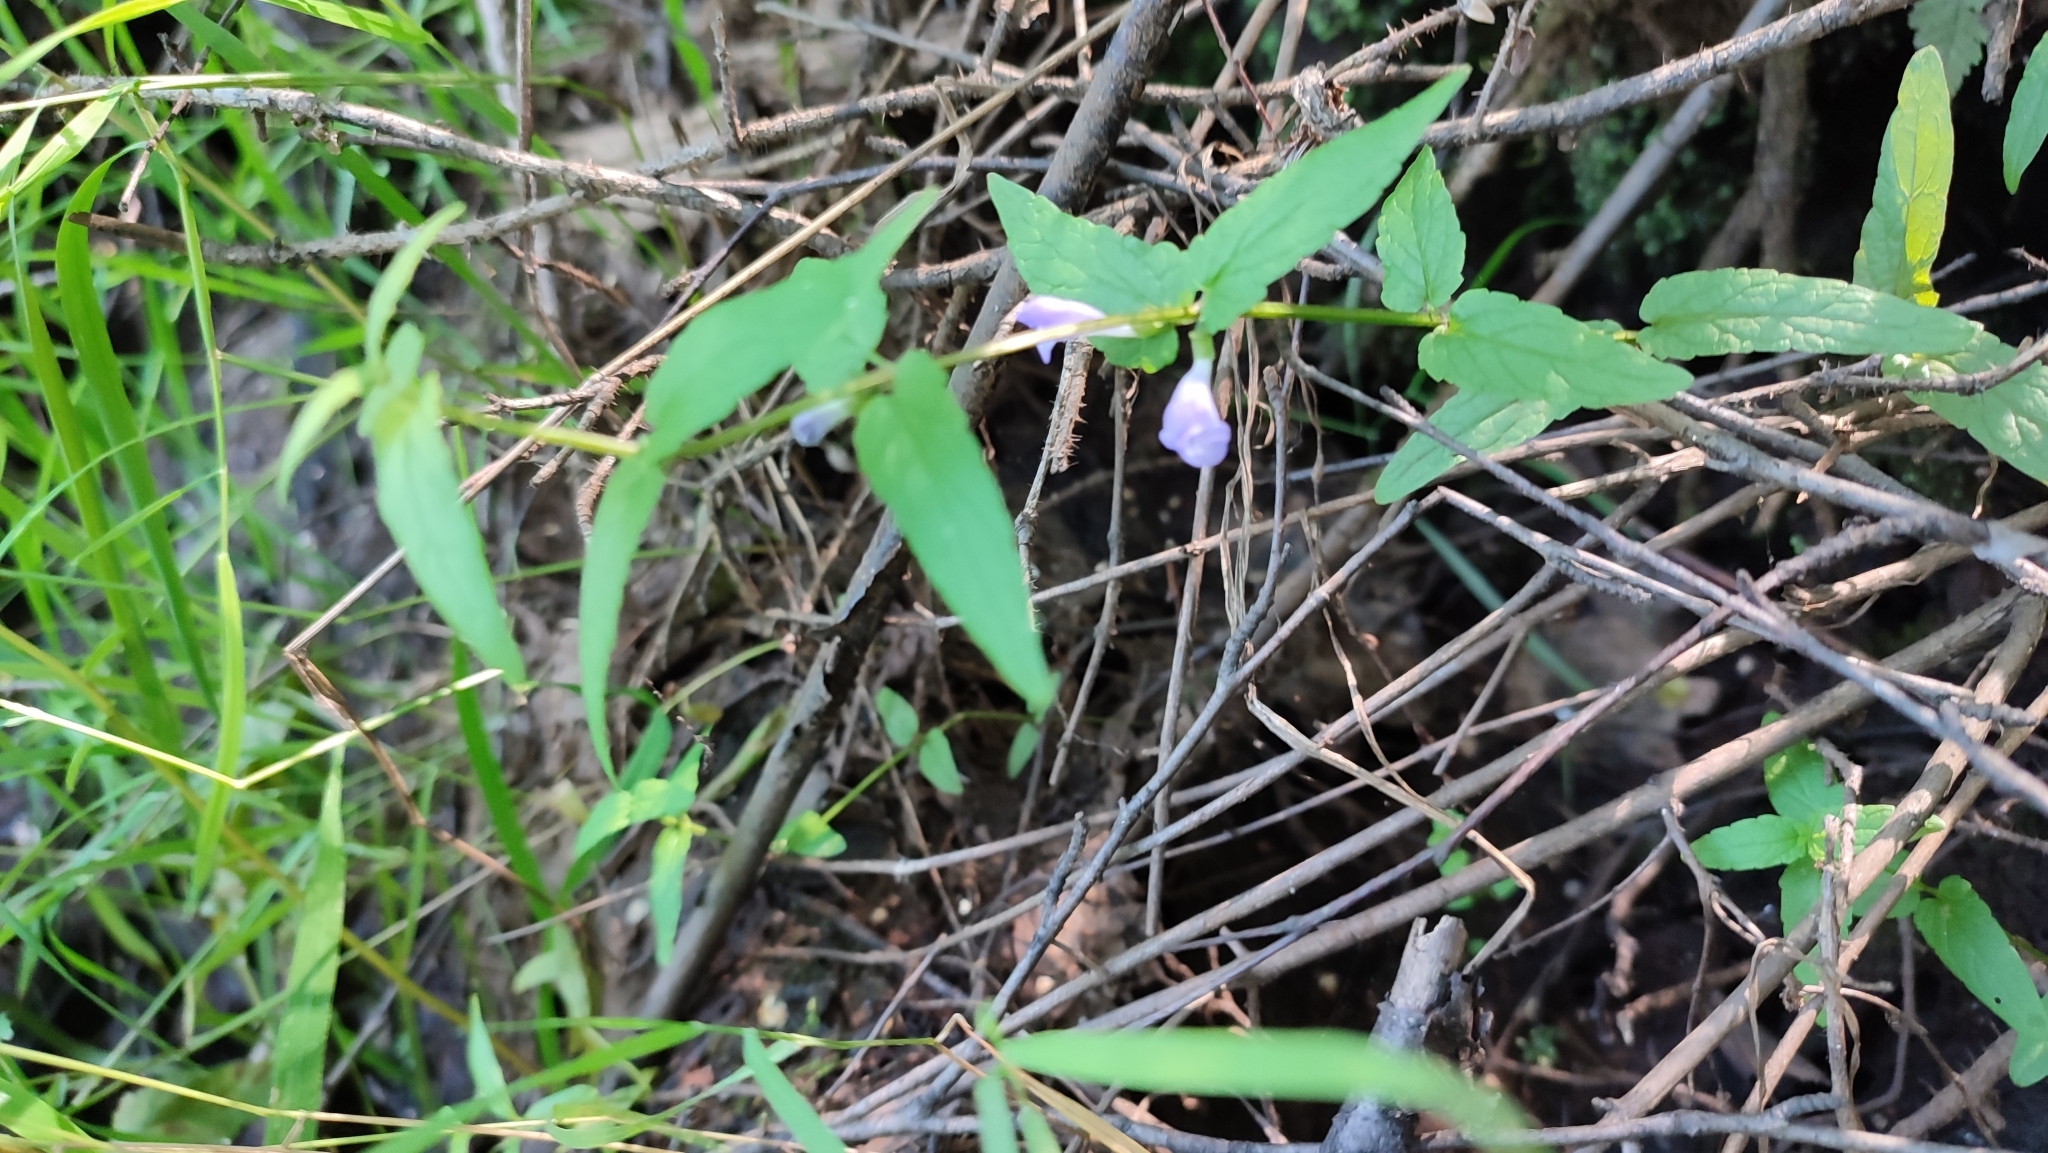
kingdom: Plantae
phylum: Tracheophyta
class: Magnoliopsida
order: Lamiales
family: Lamiaceae
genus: Scutellaria
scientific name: Scutellaria galericulata
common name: Skullcap
